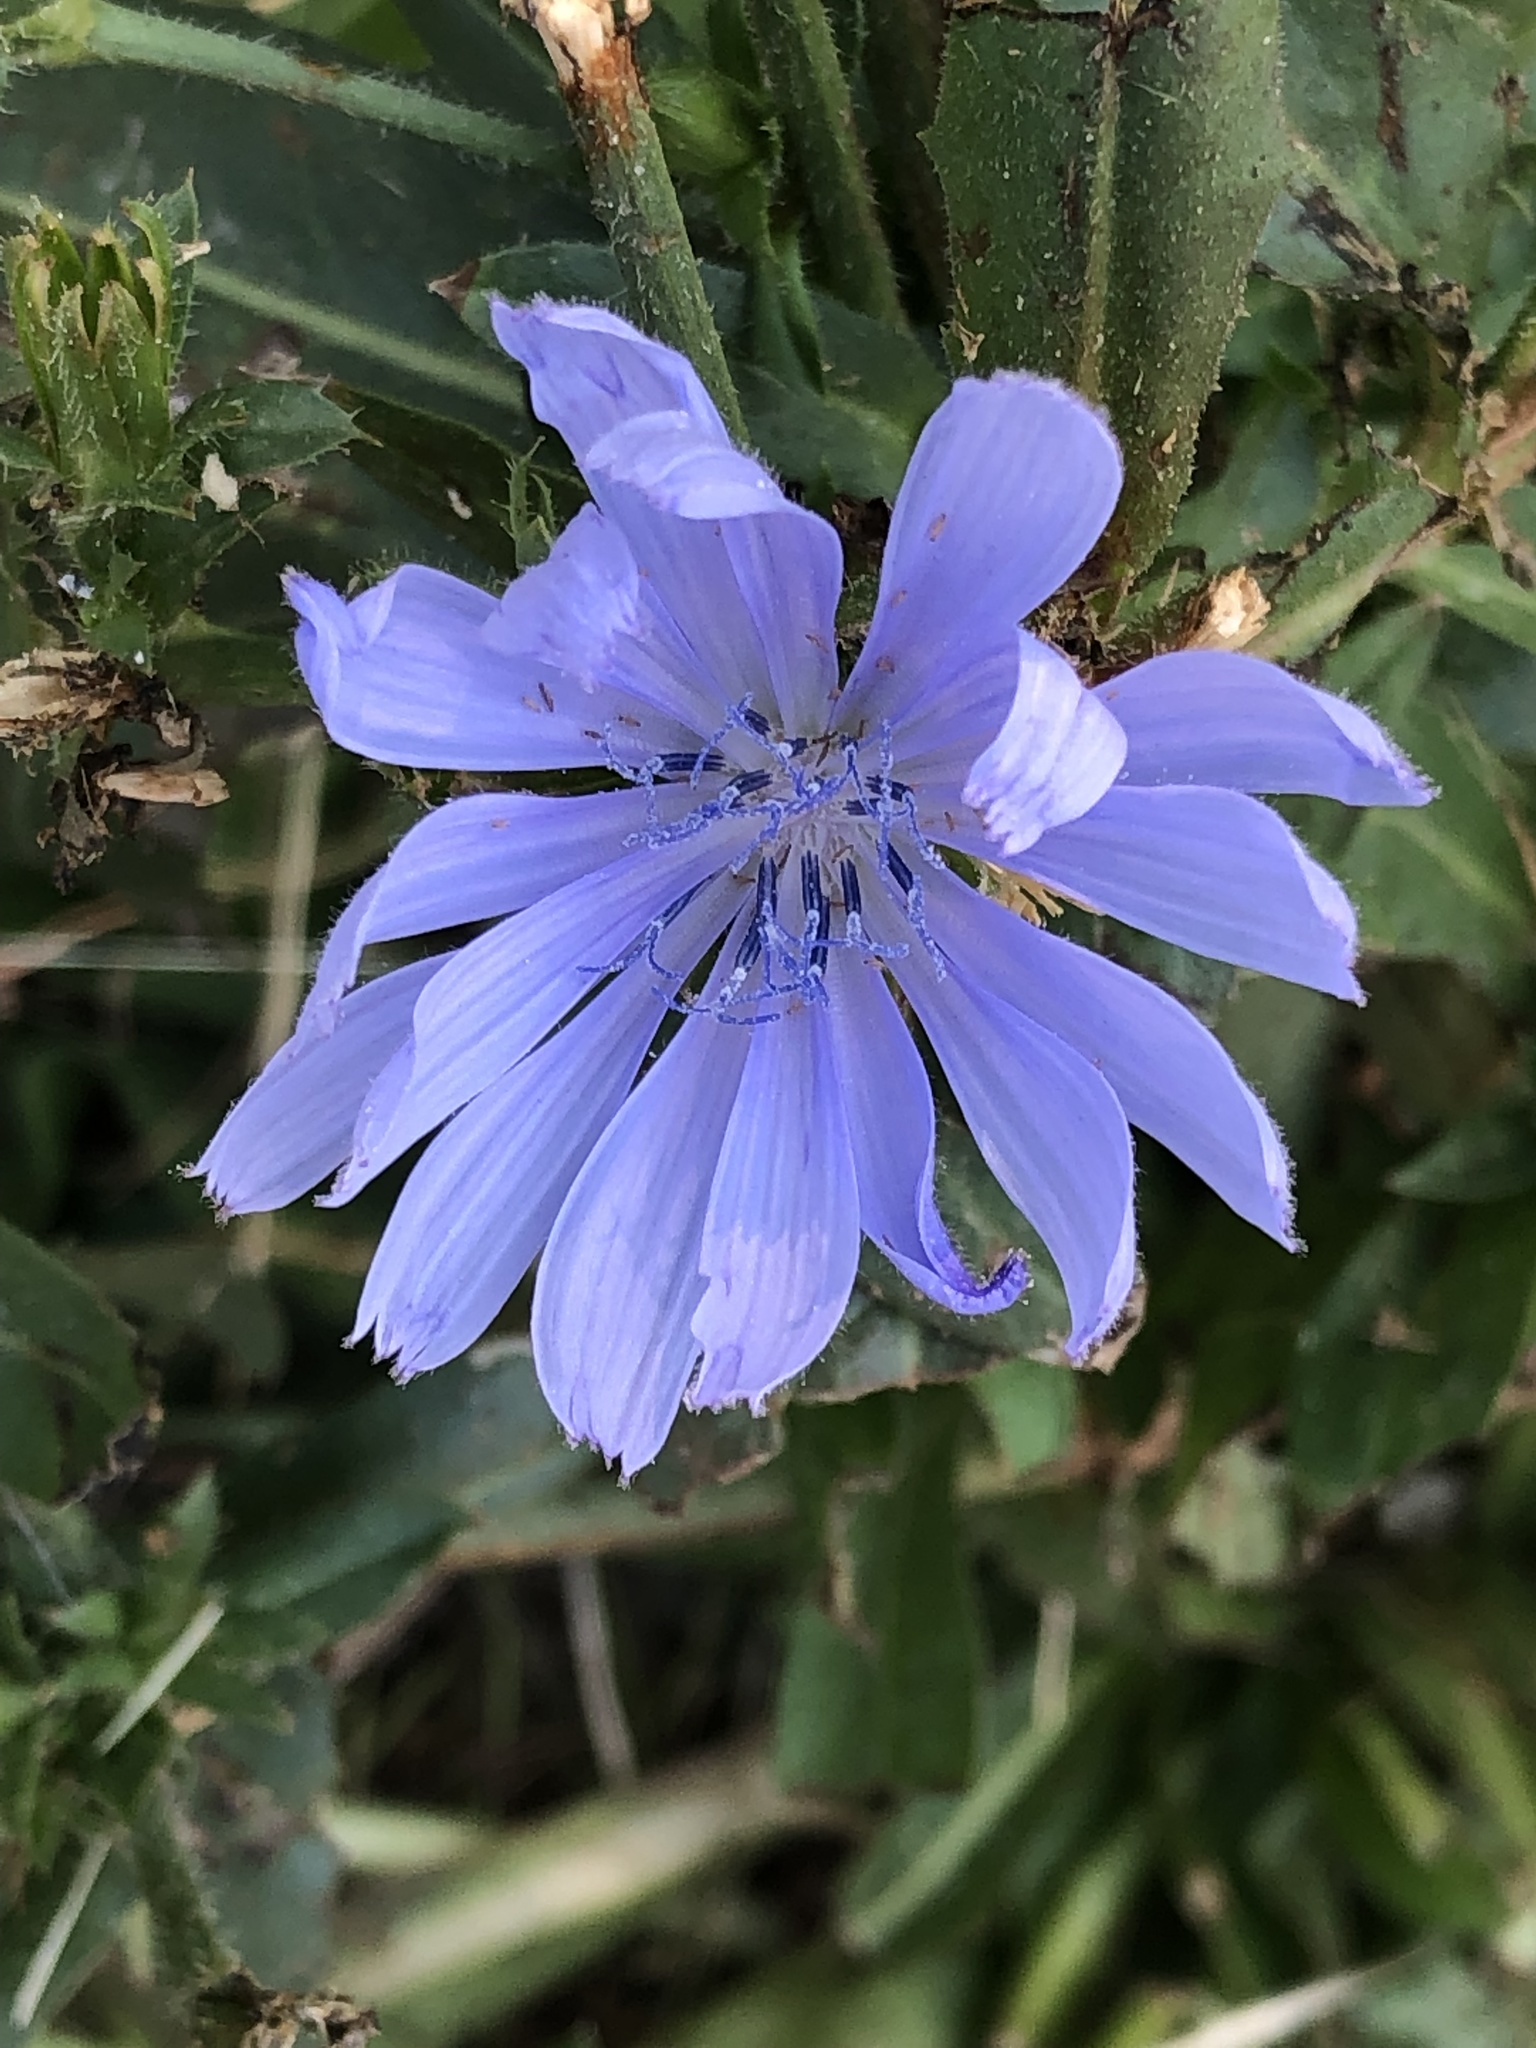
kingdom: Plantae
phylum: Tracheophyta
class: Magnoliopsida
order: Asterales
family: Asteraceae
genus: Cichorium
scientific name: Cichorium intybus
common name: Chicory
